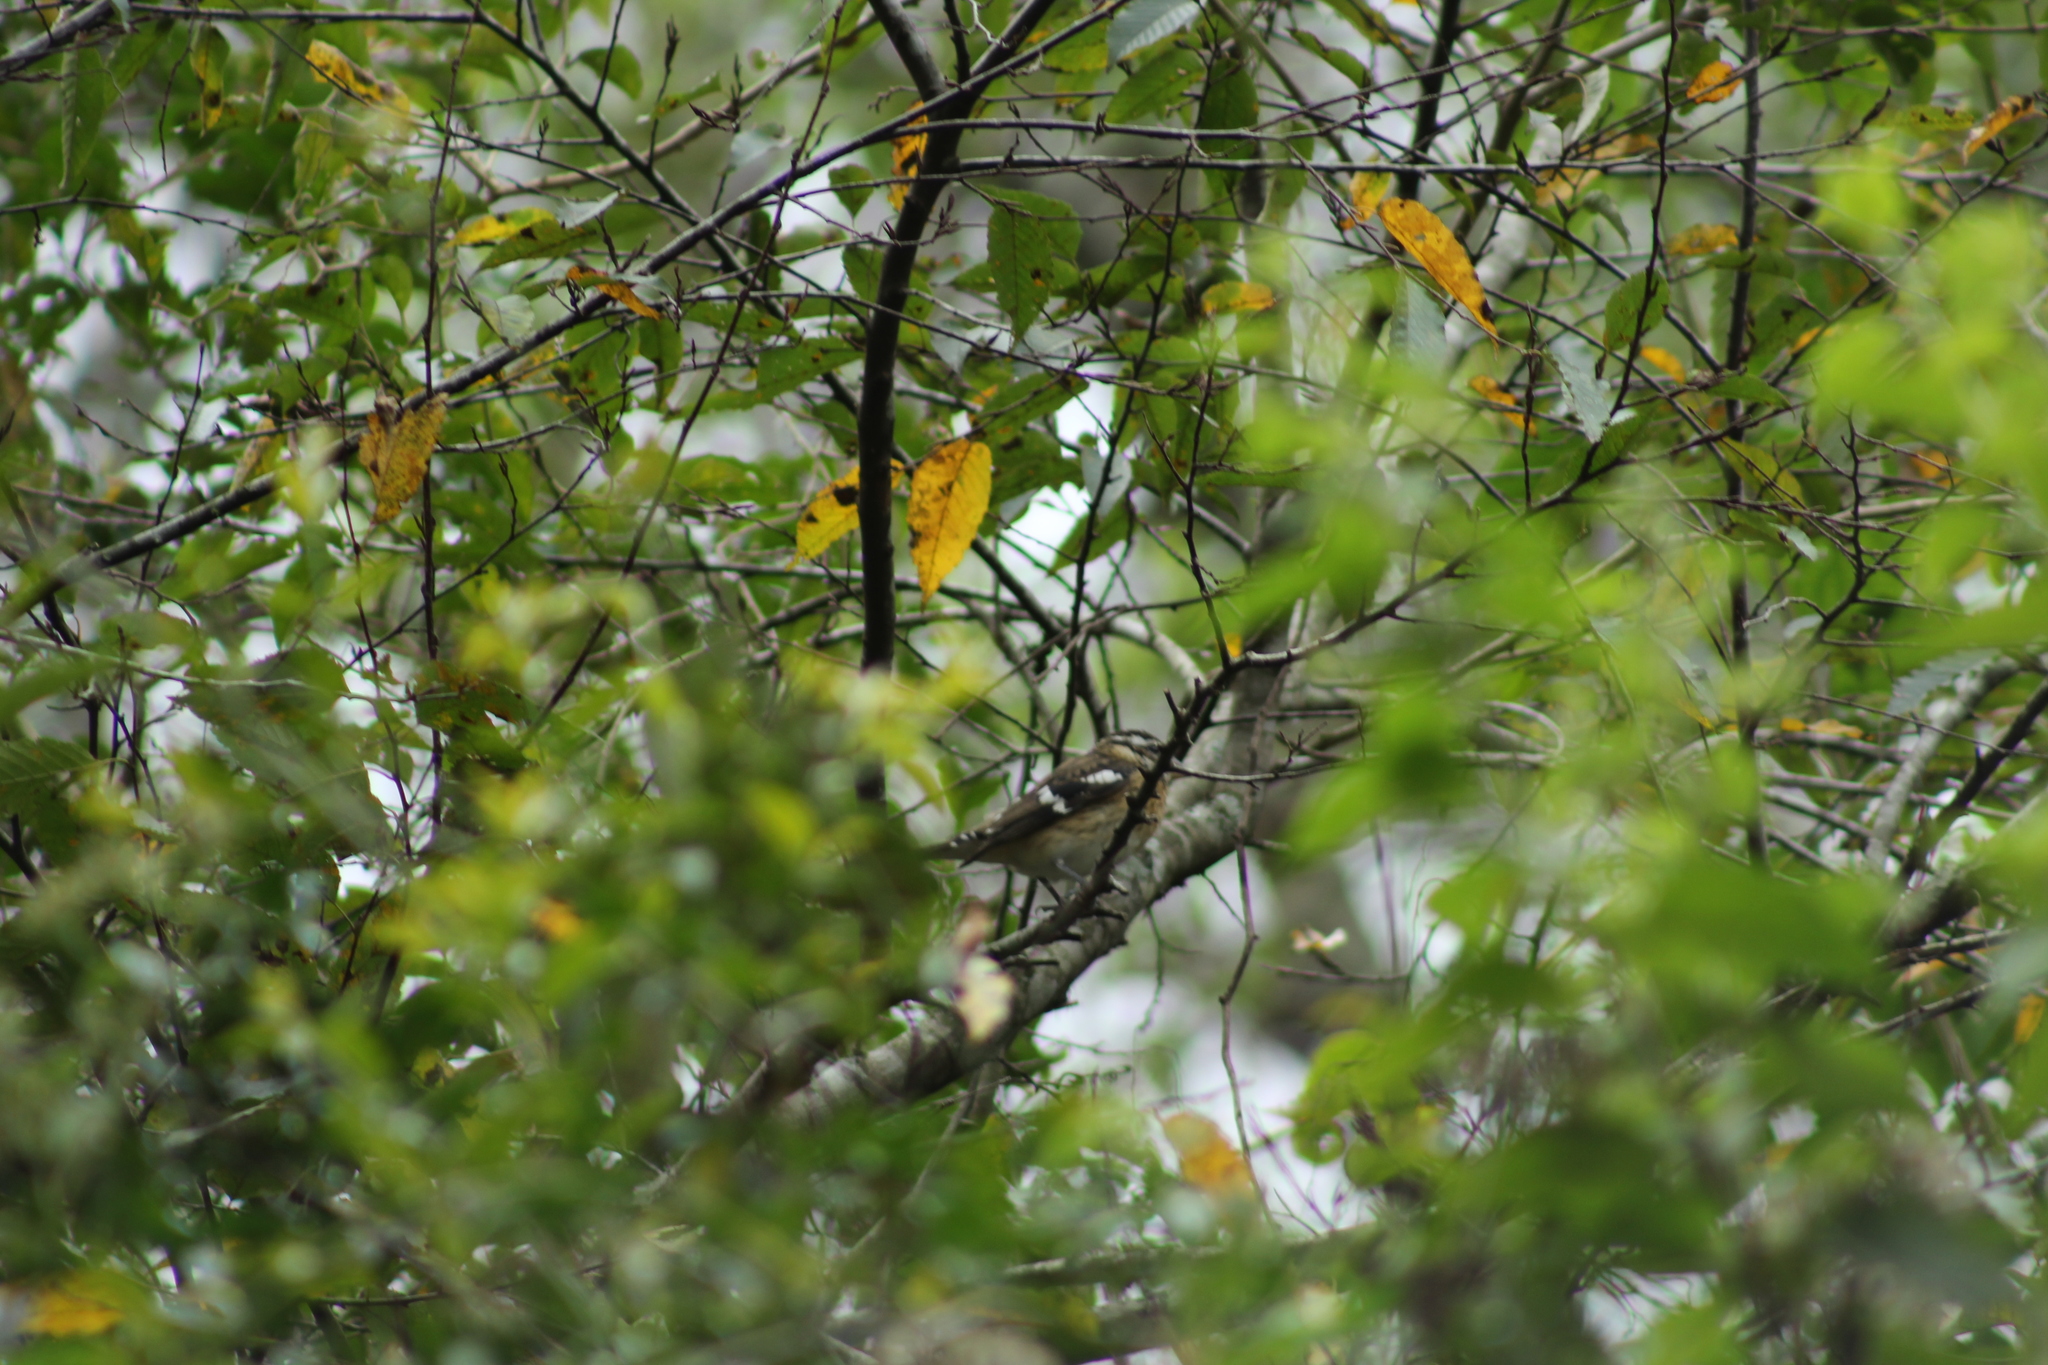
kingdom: Animalia
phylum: Chordata
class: Aves
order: Passeriformes
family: Cardinalidae
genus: Pheucticus
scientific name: Pheucticus ludovicianus
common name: Rose-breasted grosbeak
